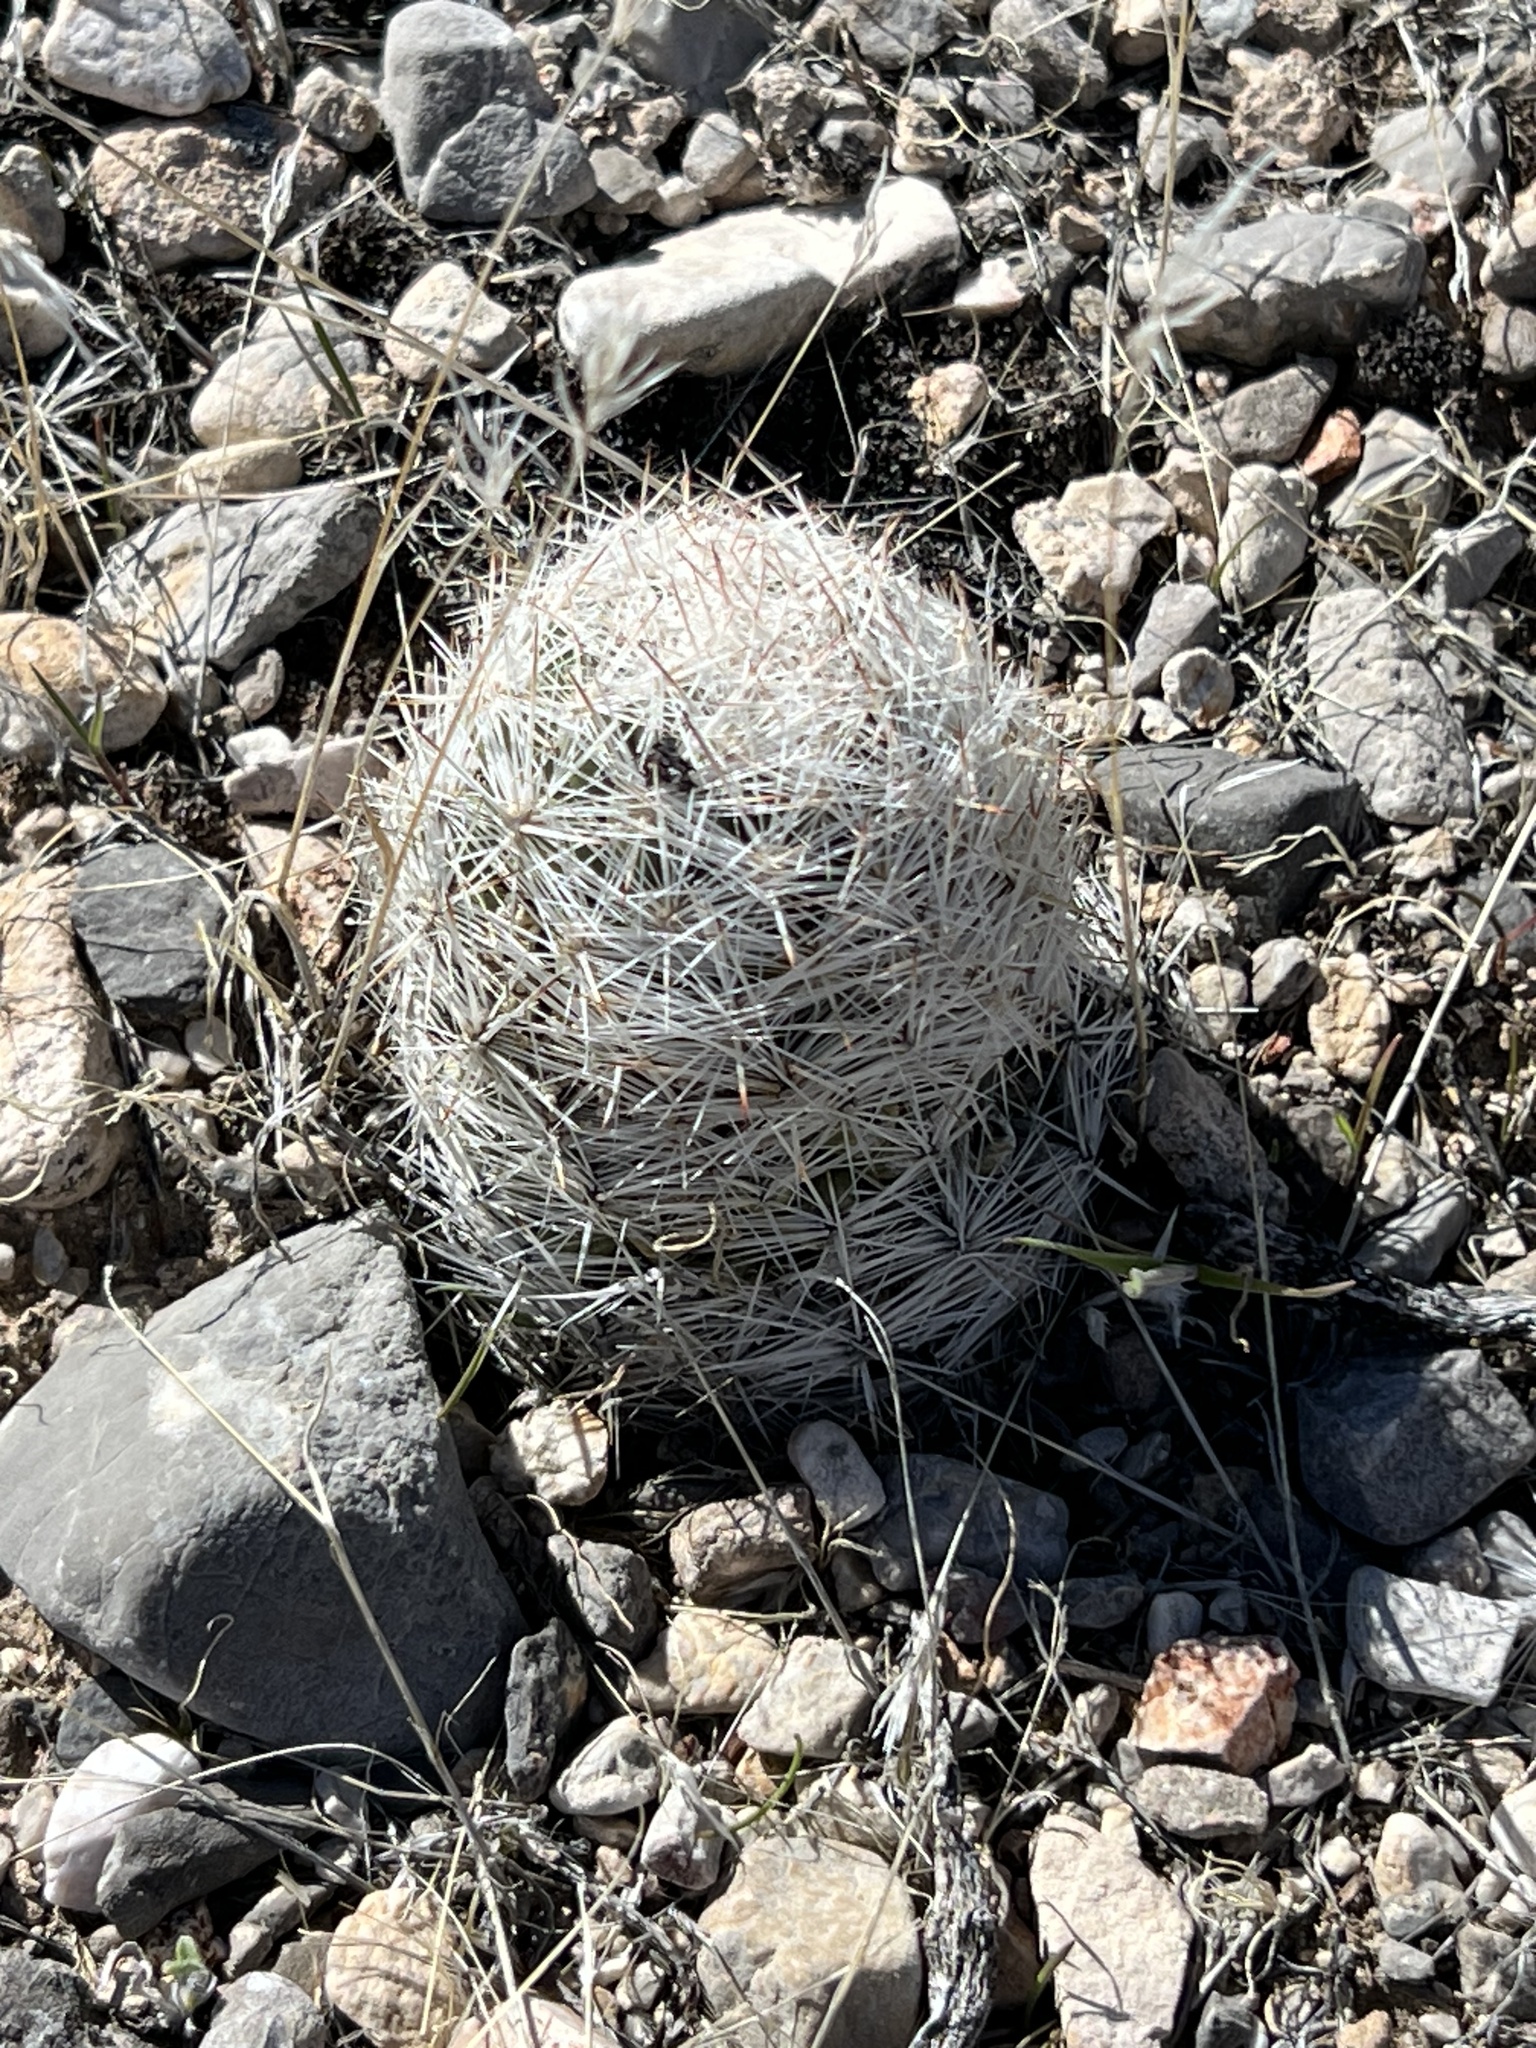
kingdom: Plantae
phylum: Tracheophyta
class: Magnoliopsida
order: Caryophyllales
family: Cactaceae
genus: Pelecyphora
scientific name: Pelecyphora dasyacantha
